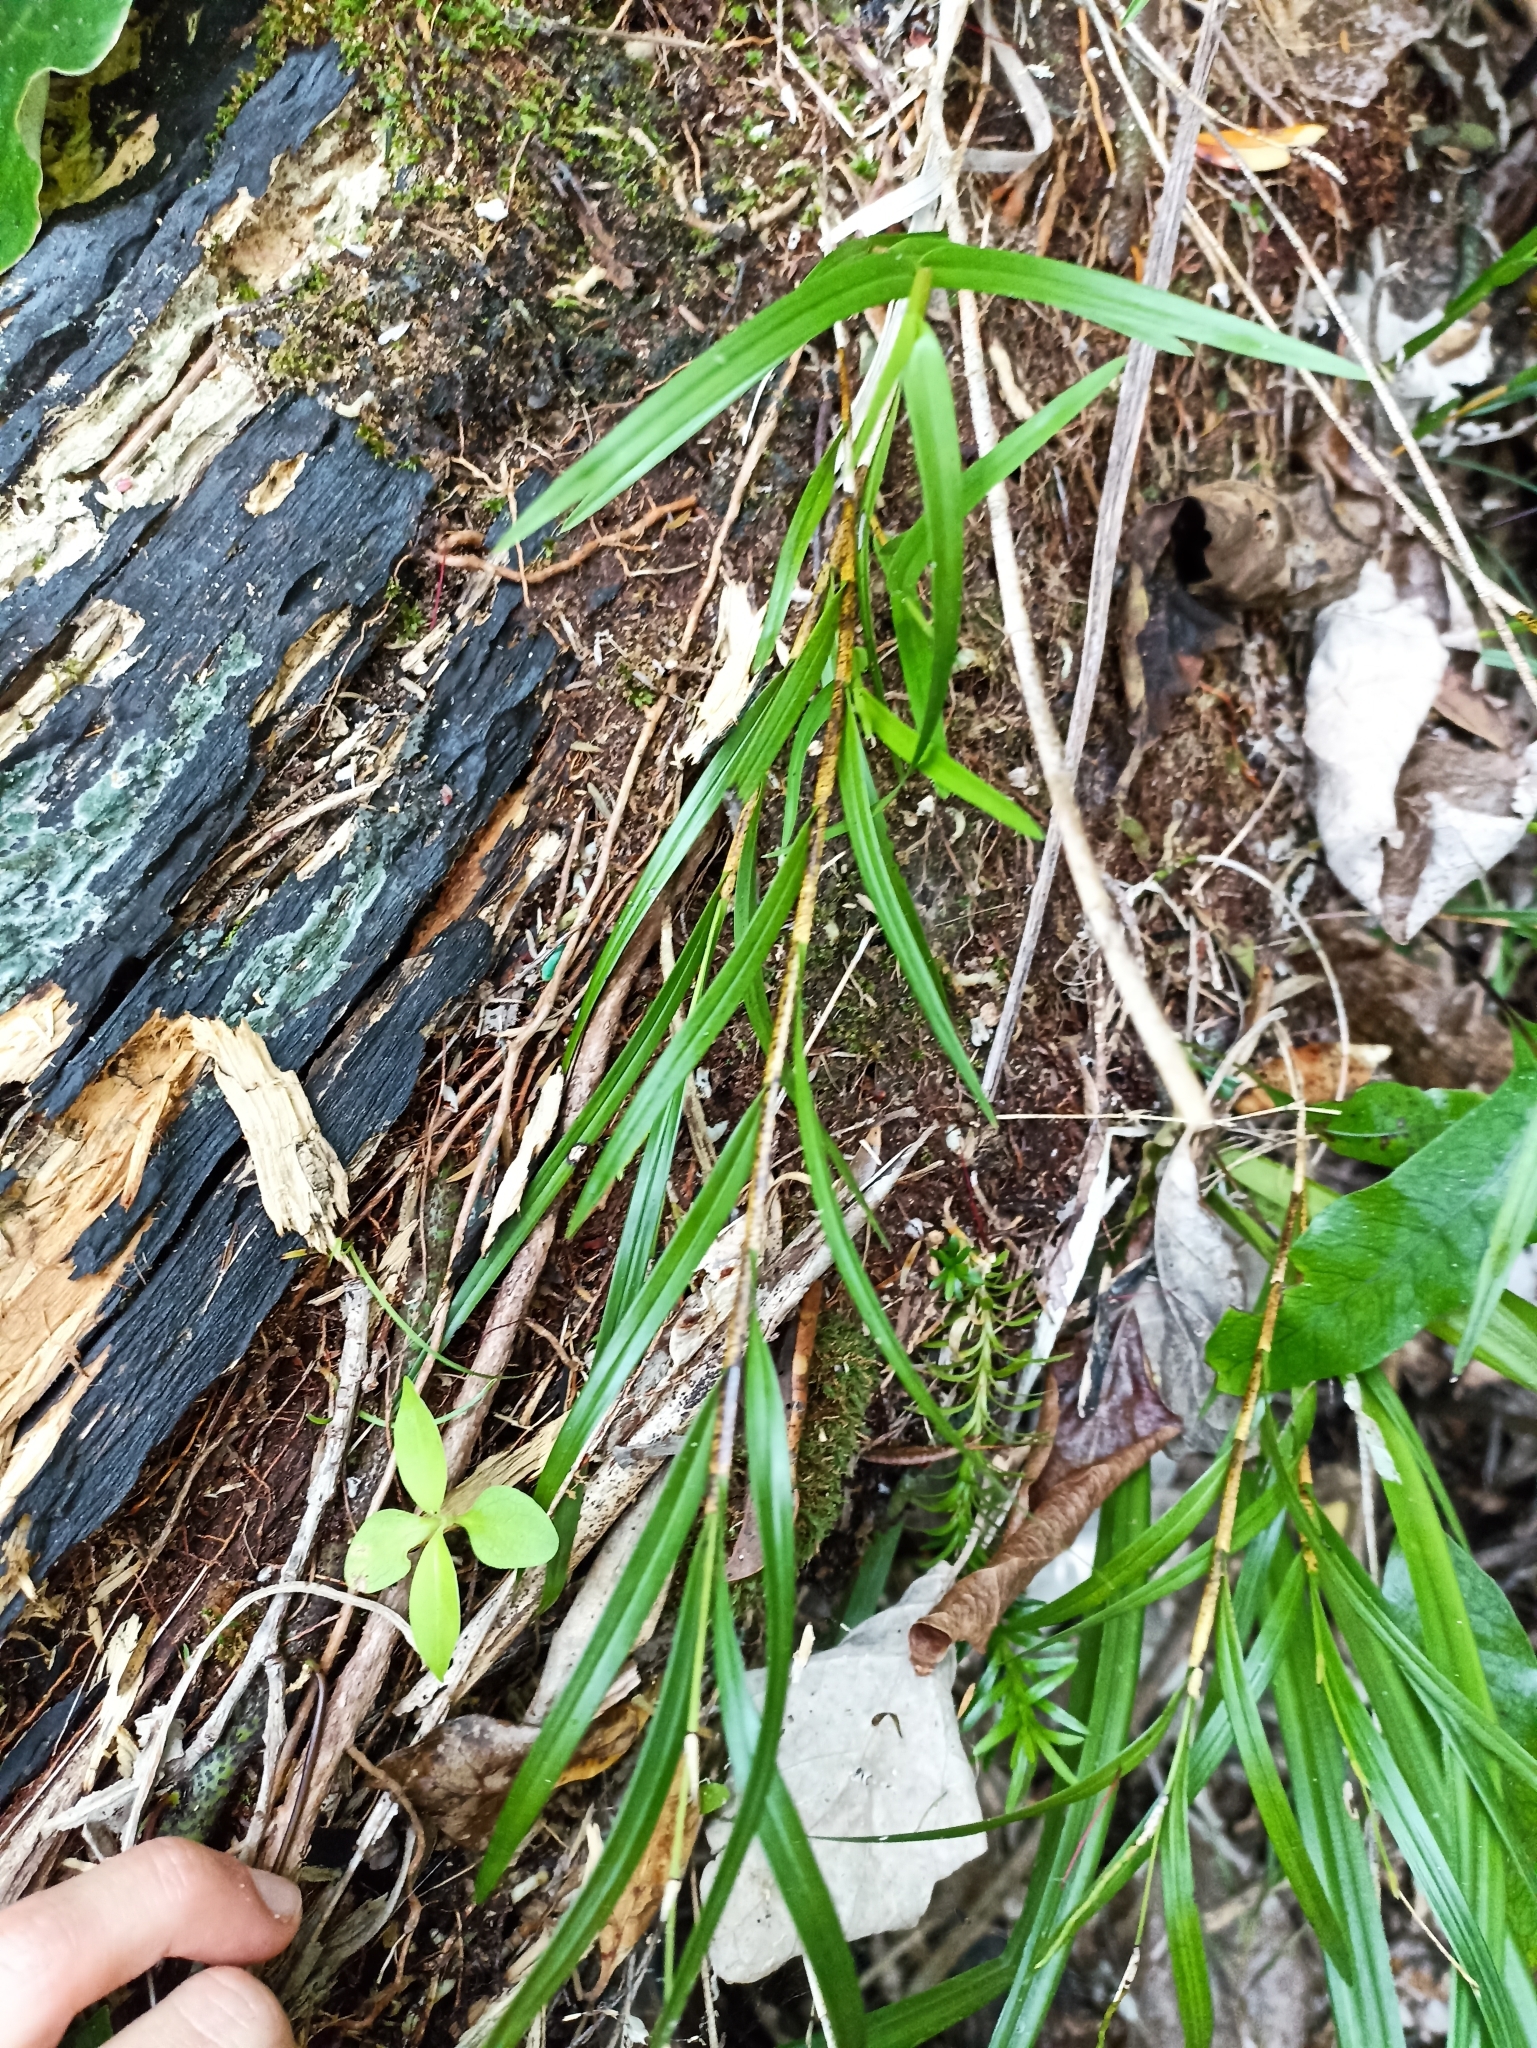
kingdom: Plantae
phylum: Tracheophyta
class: Liliopsida
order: Asparagales
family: Orchidaceae
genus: Earina
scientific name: Earina mucronata
